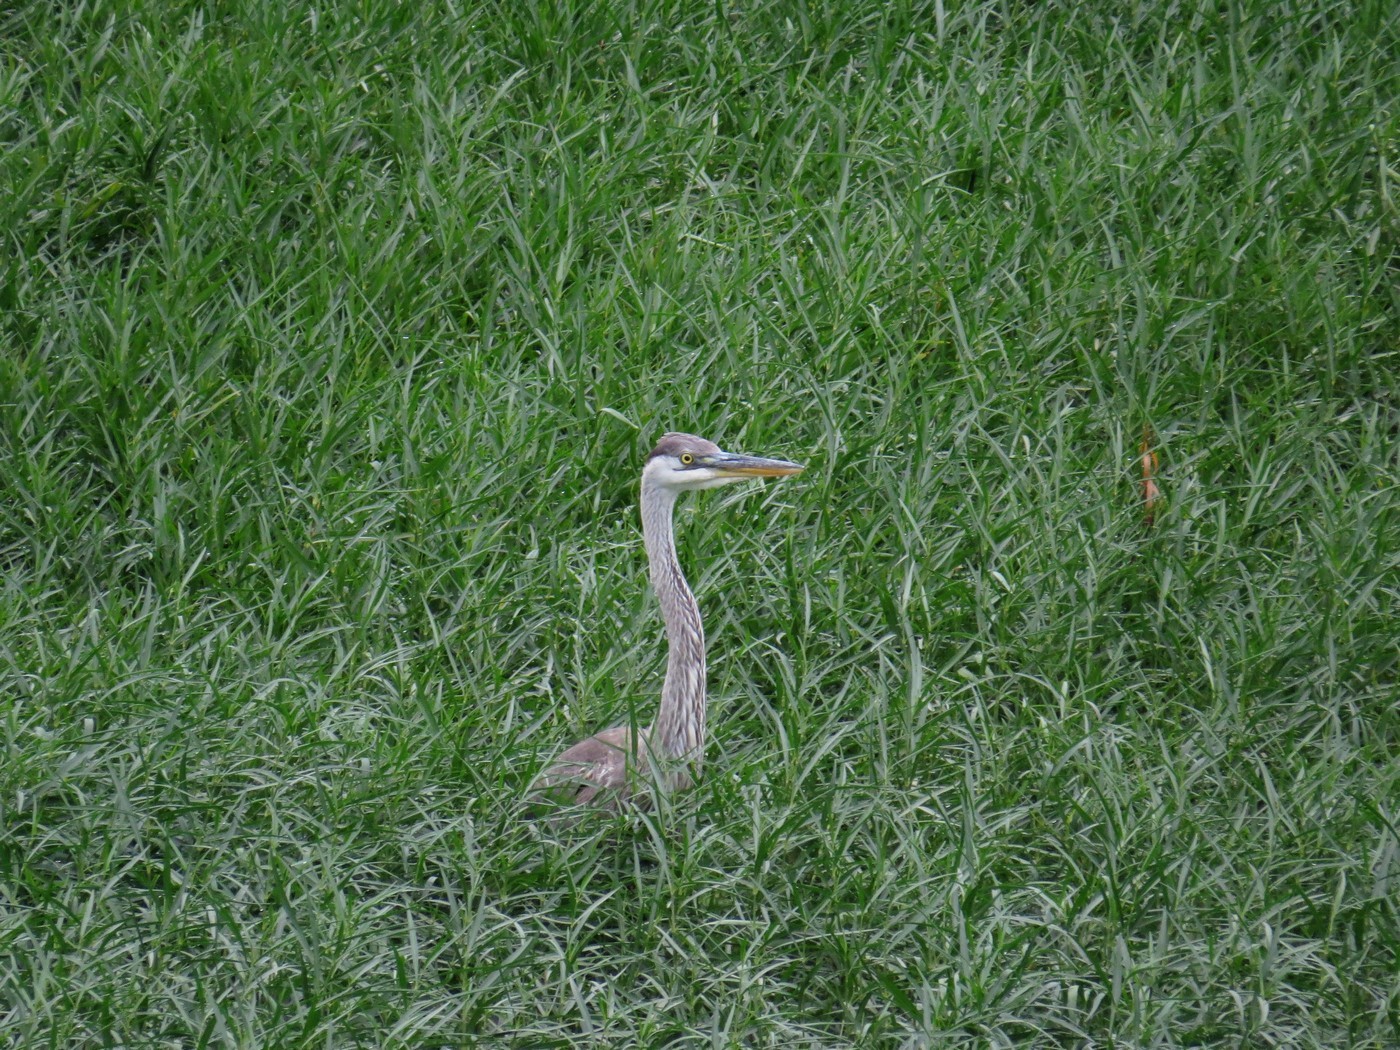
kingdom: Animalia
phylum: Chordata
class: Aves
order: Pelecaniformes
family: Ardeidae
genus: Ardea
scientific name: Ardea herodias
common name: Great blue heron
